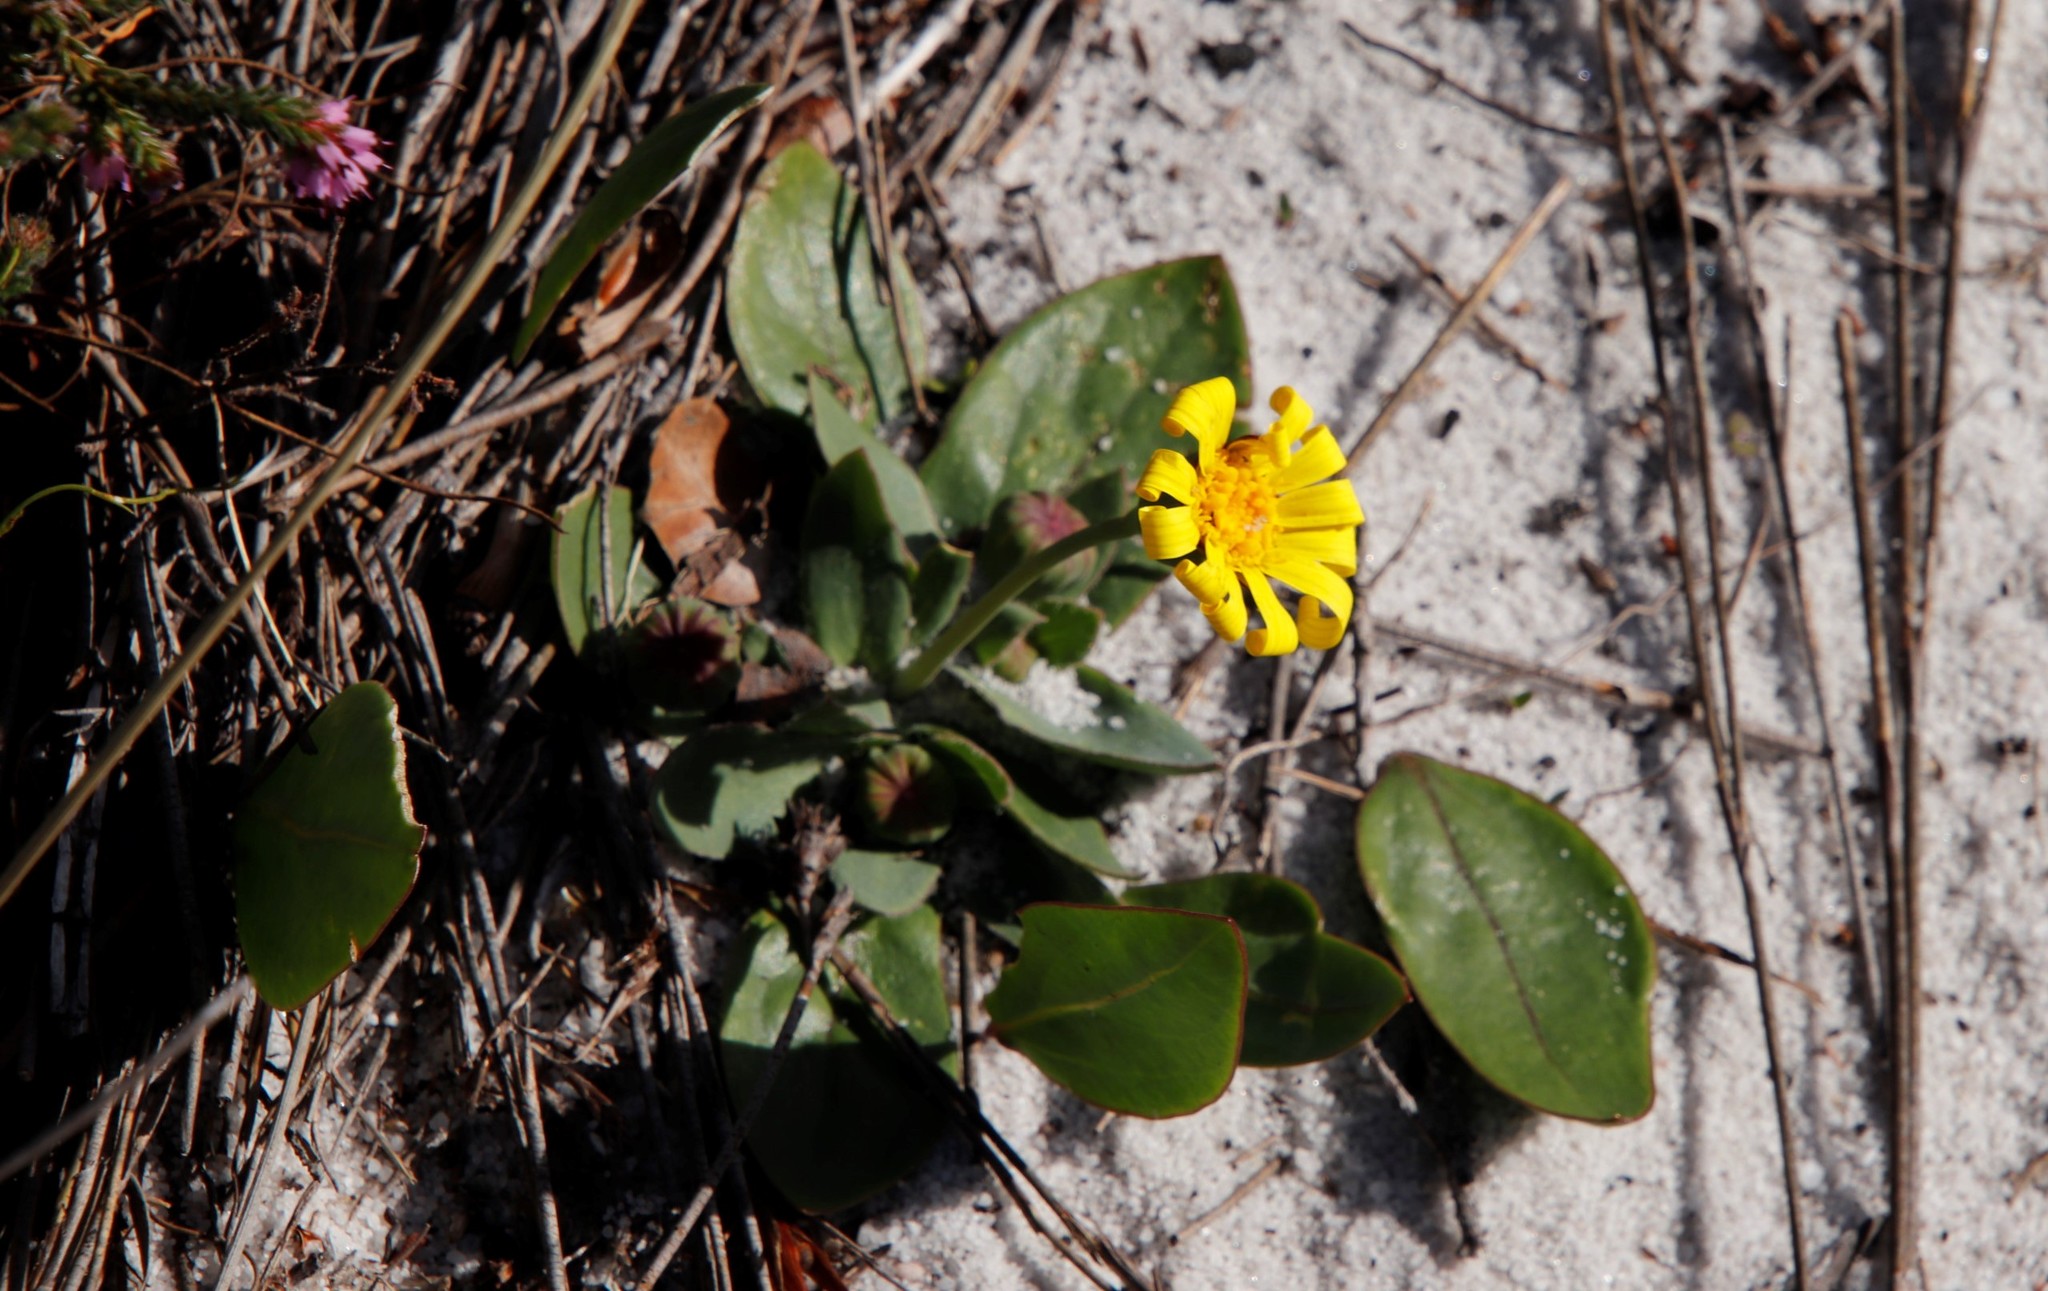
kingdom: Plantae
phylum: Tracheophyta
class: Magnoliopsida
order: Asterales
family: Asteraceae
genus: Othonna
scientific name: Othonna bulbosa
